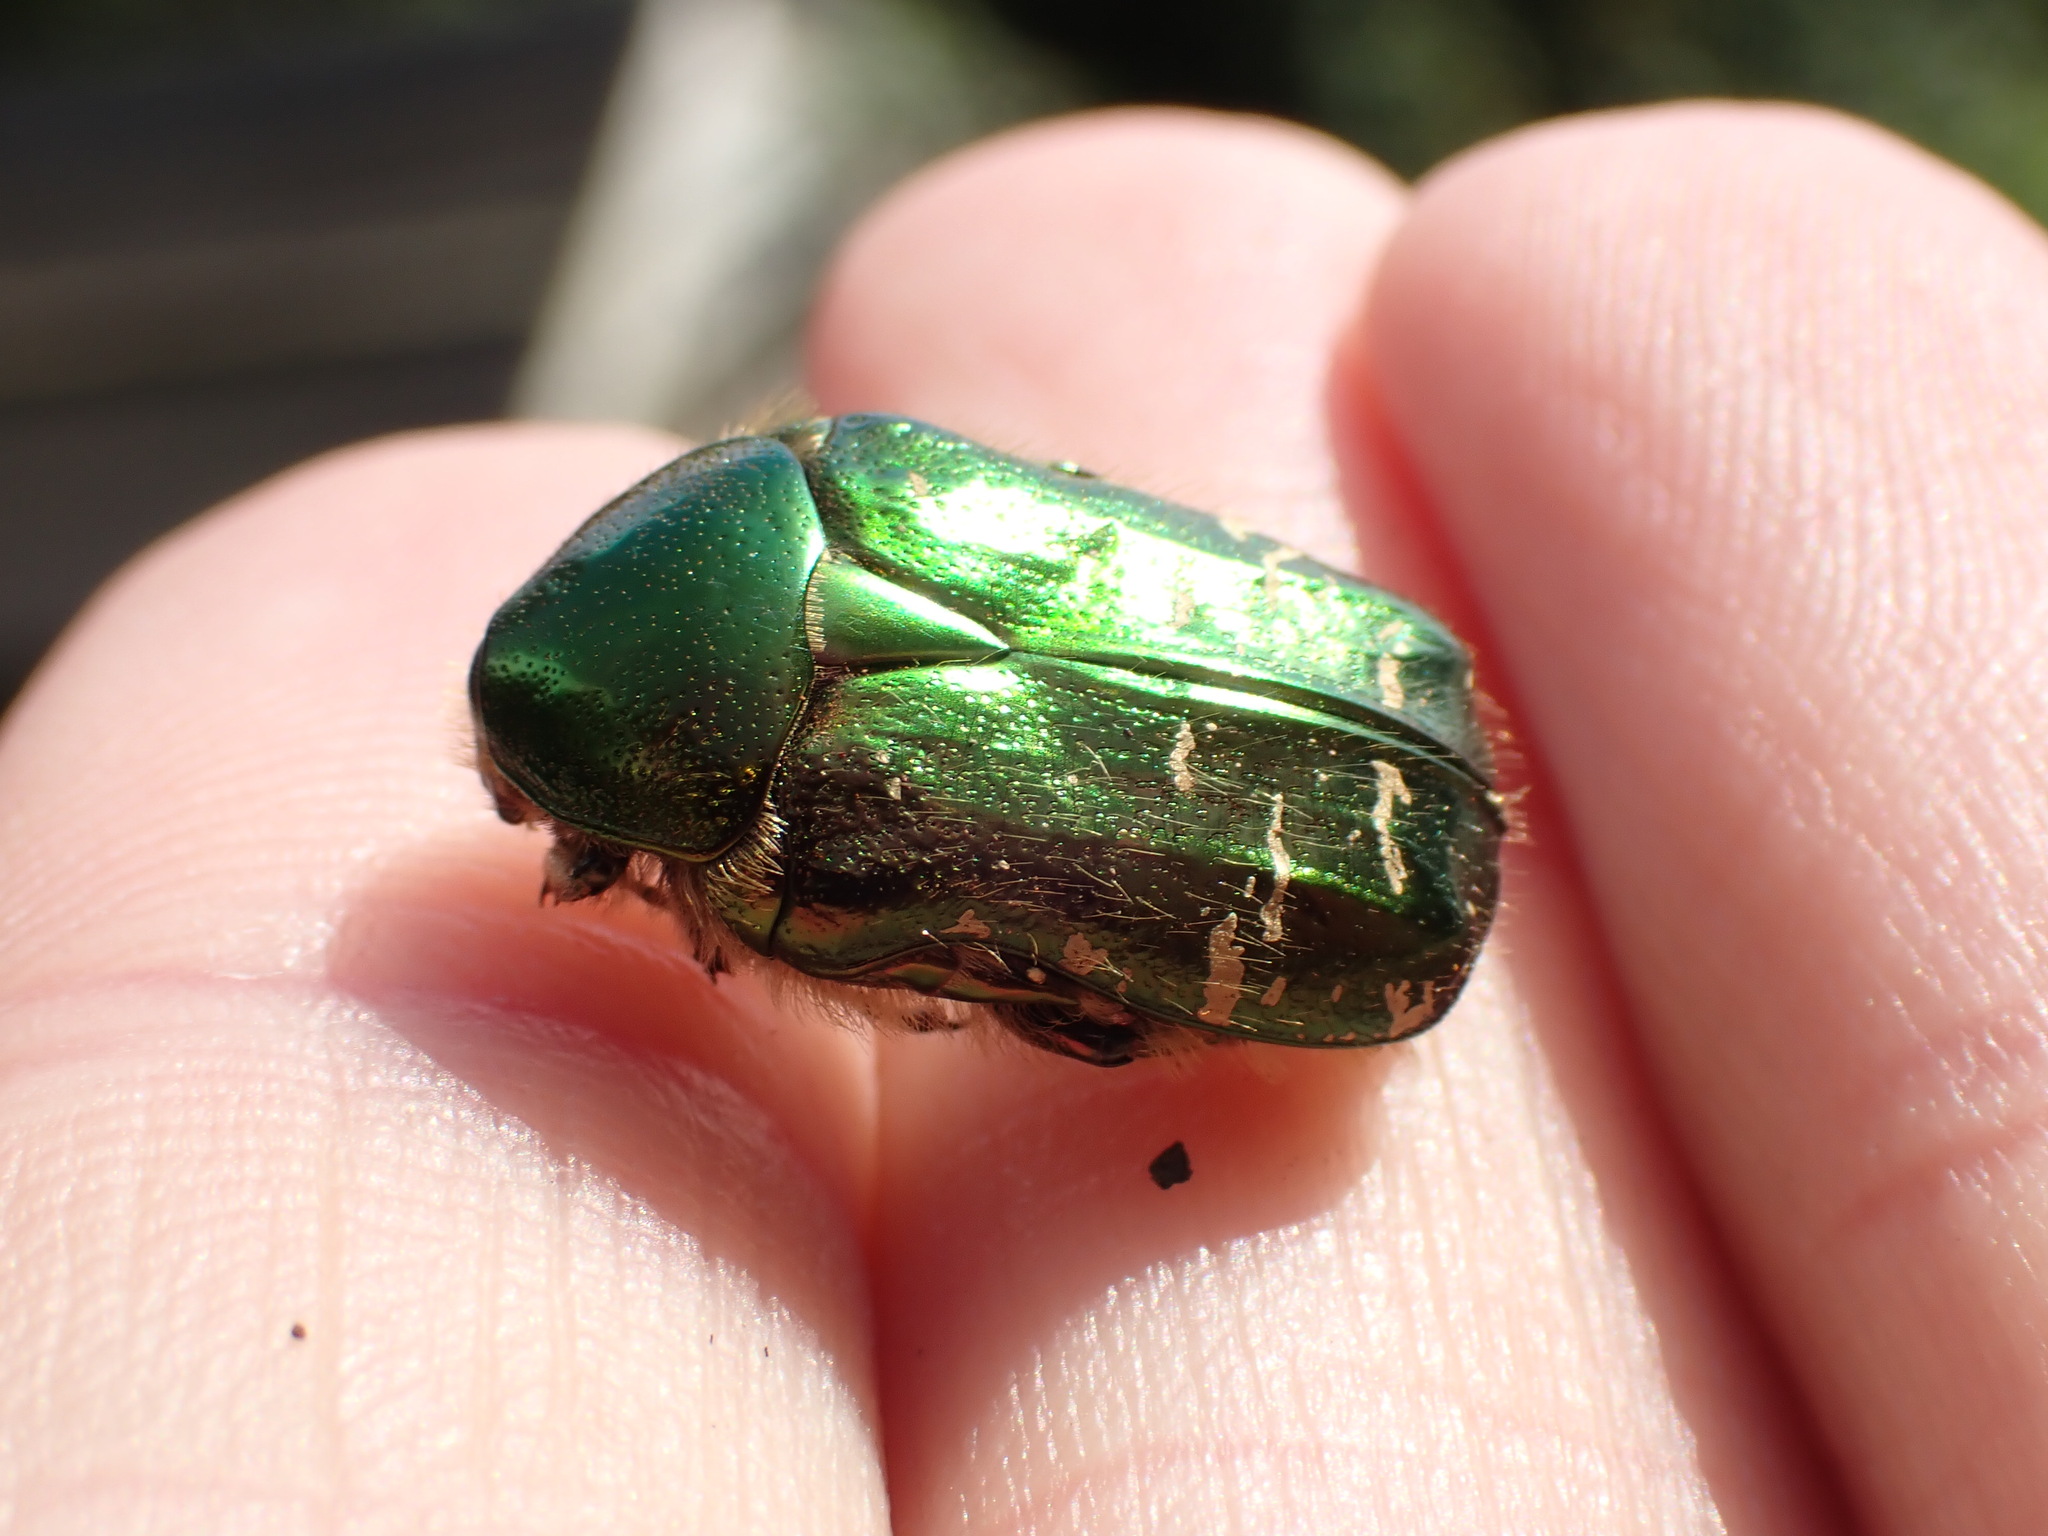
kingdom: Animalia
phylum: Arthropoda
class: Insecta
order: Coleoptera
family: Scarabaeidae
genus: Cetonia
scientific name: Cetonia aurata
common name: Rose chafer
